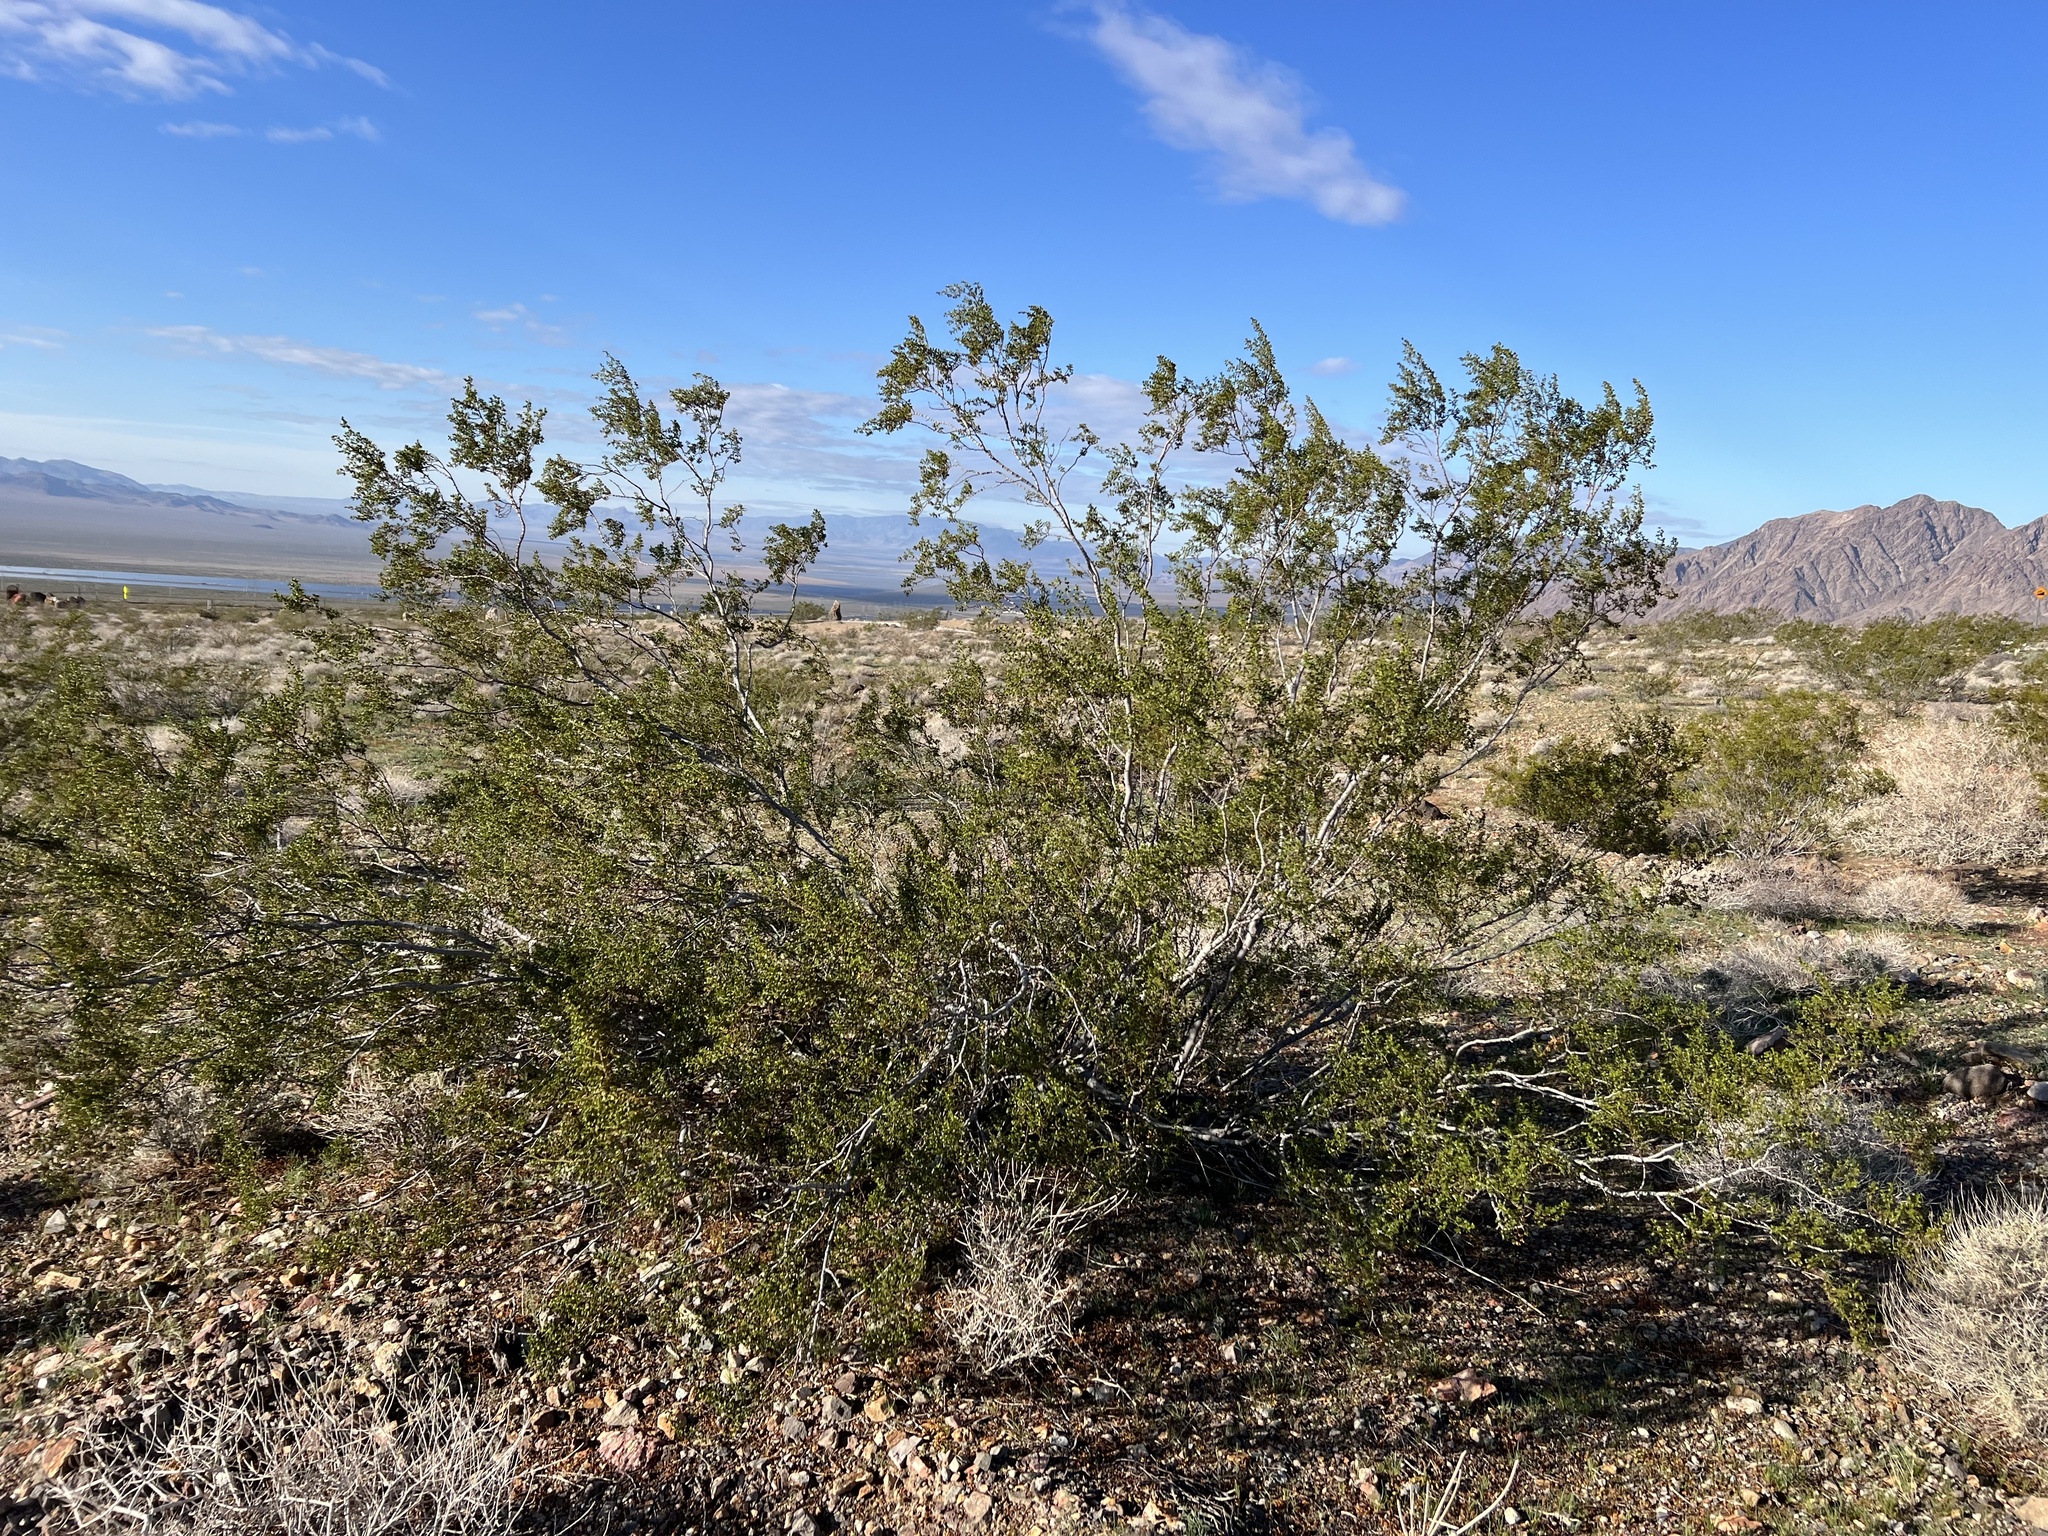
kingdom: Plantae
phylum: Tracheophyta
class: Magnoliopsida
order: Zygophyllales
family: Zygophyllaceae
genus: Larrea
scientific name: Larrea tridentata
